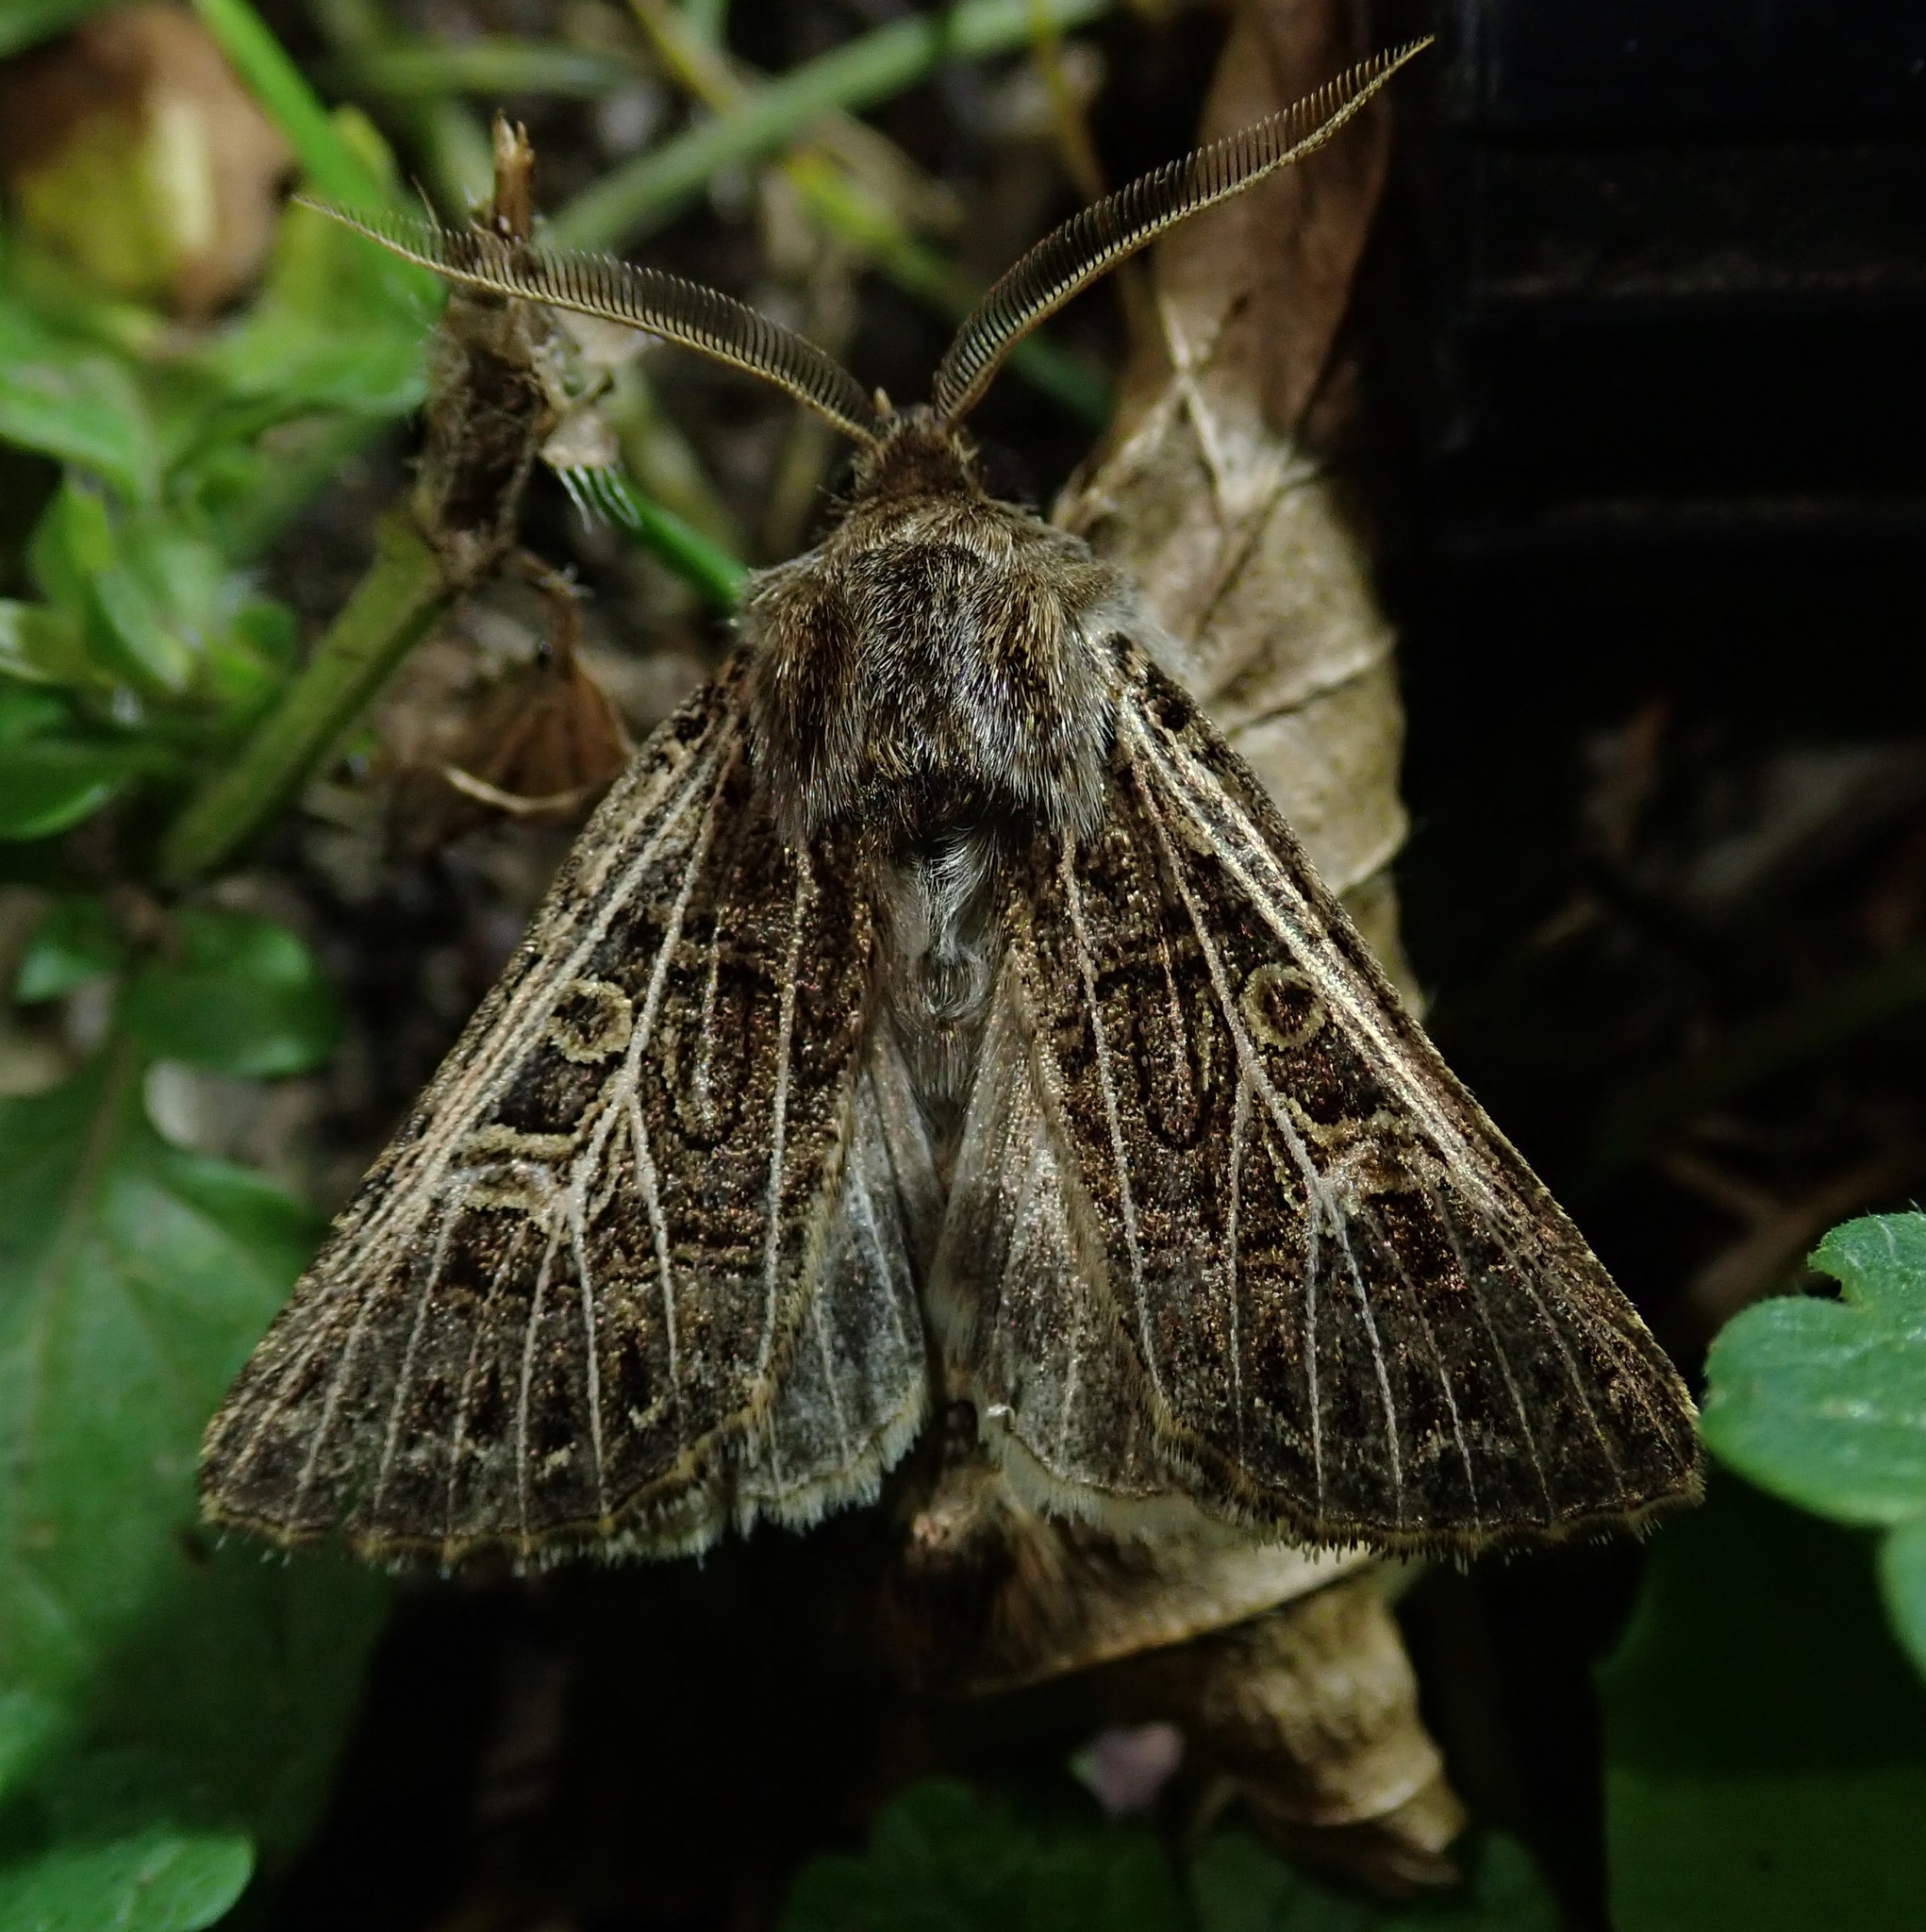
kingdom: Animalia
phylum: Arthropoda
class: Insecta
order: Lepidoptera
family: Noctuidae
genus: Tholera
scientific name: Tholera decimalis
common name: Feathered gothic
